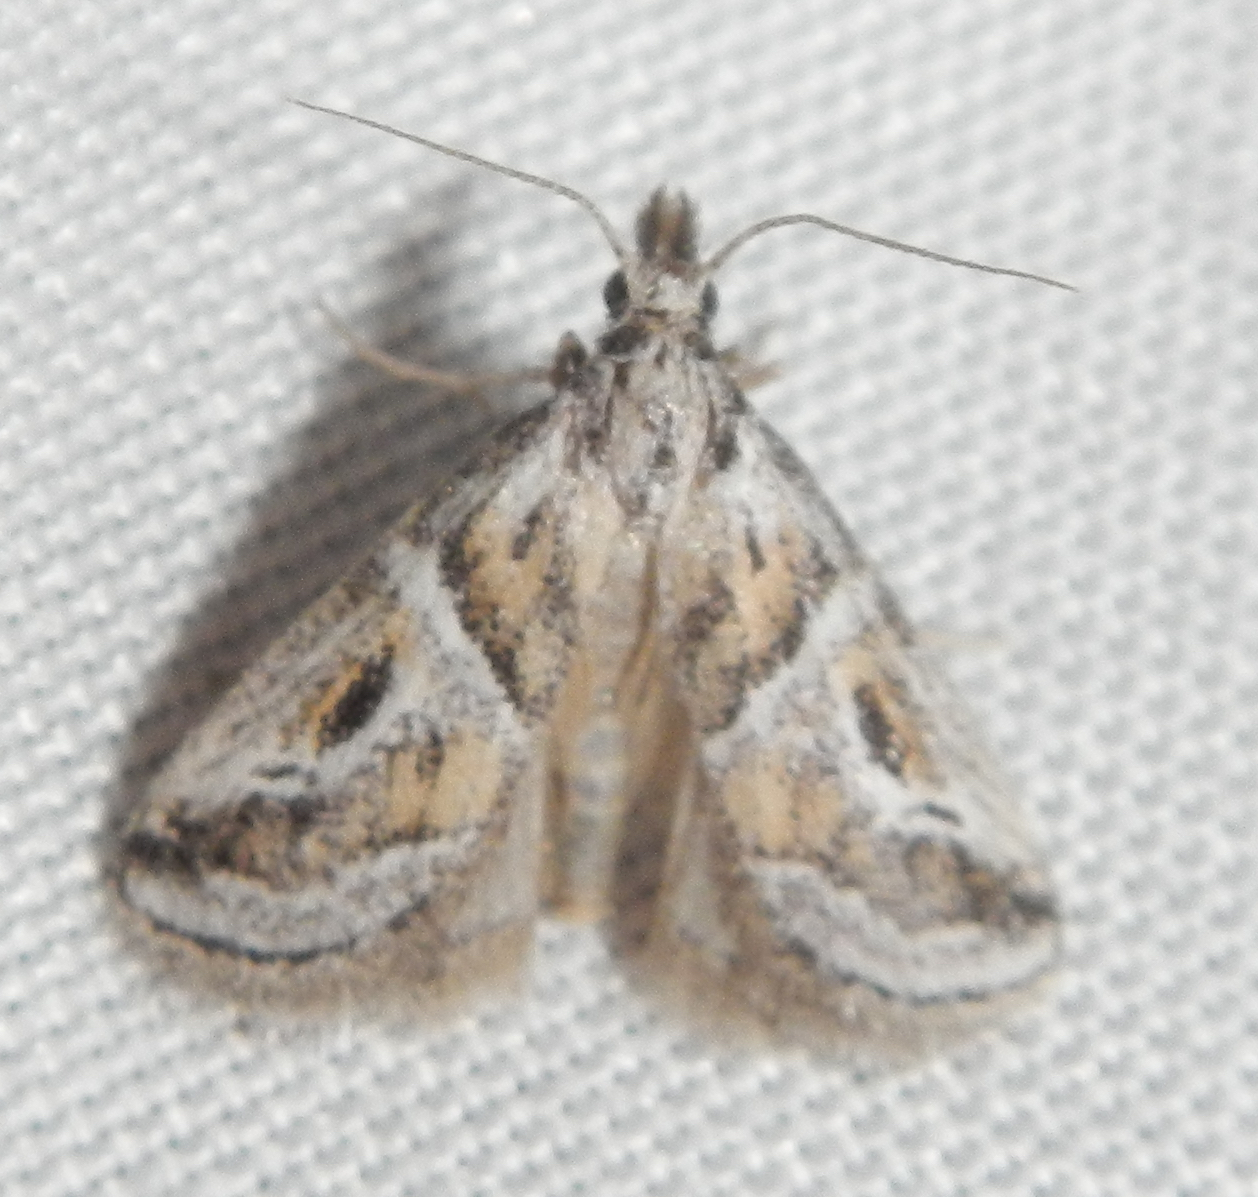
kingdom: Animalia
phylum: Arthropoda
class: Insecta
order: Lepidoptera
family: Pyralidae
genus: Alpheias
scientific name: Alpheias Decaturia pectinalis
